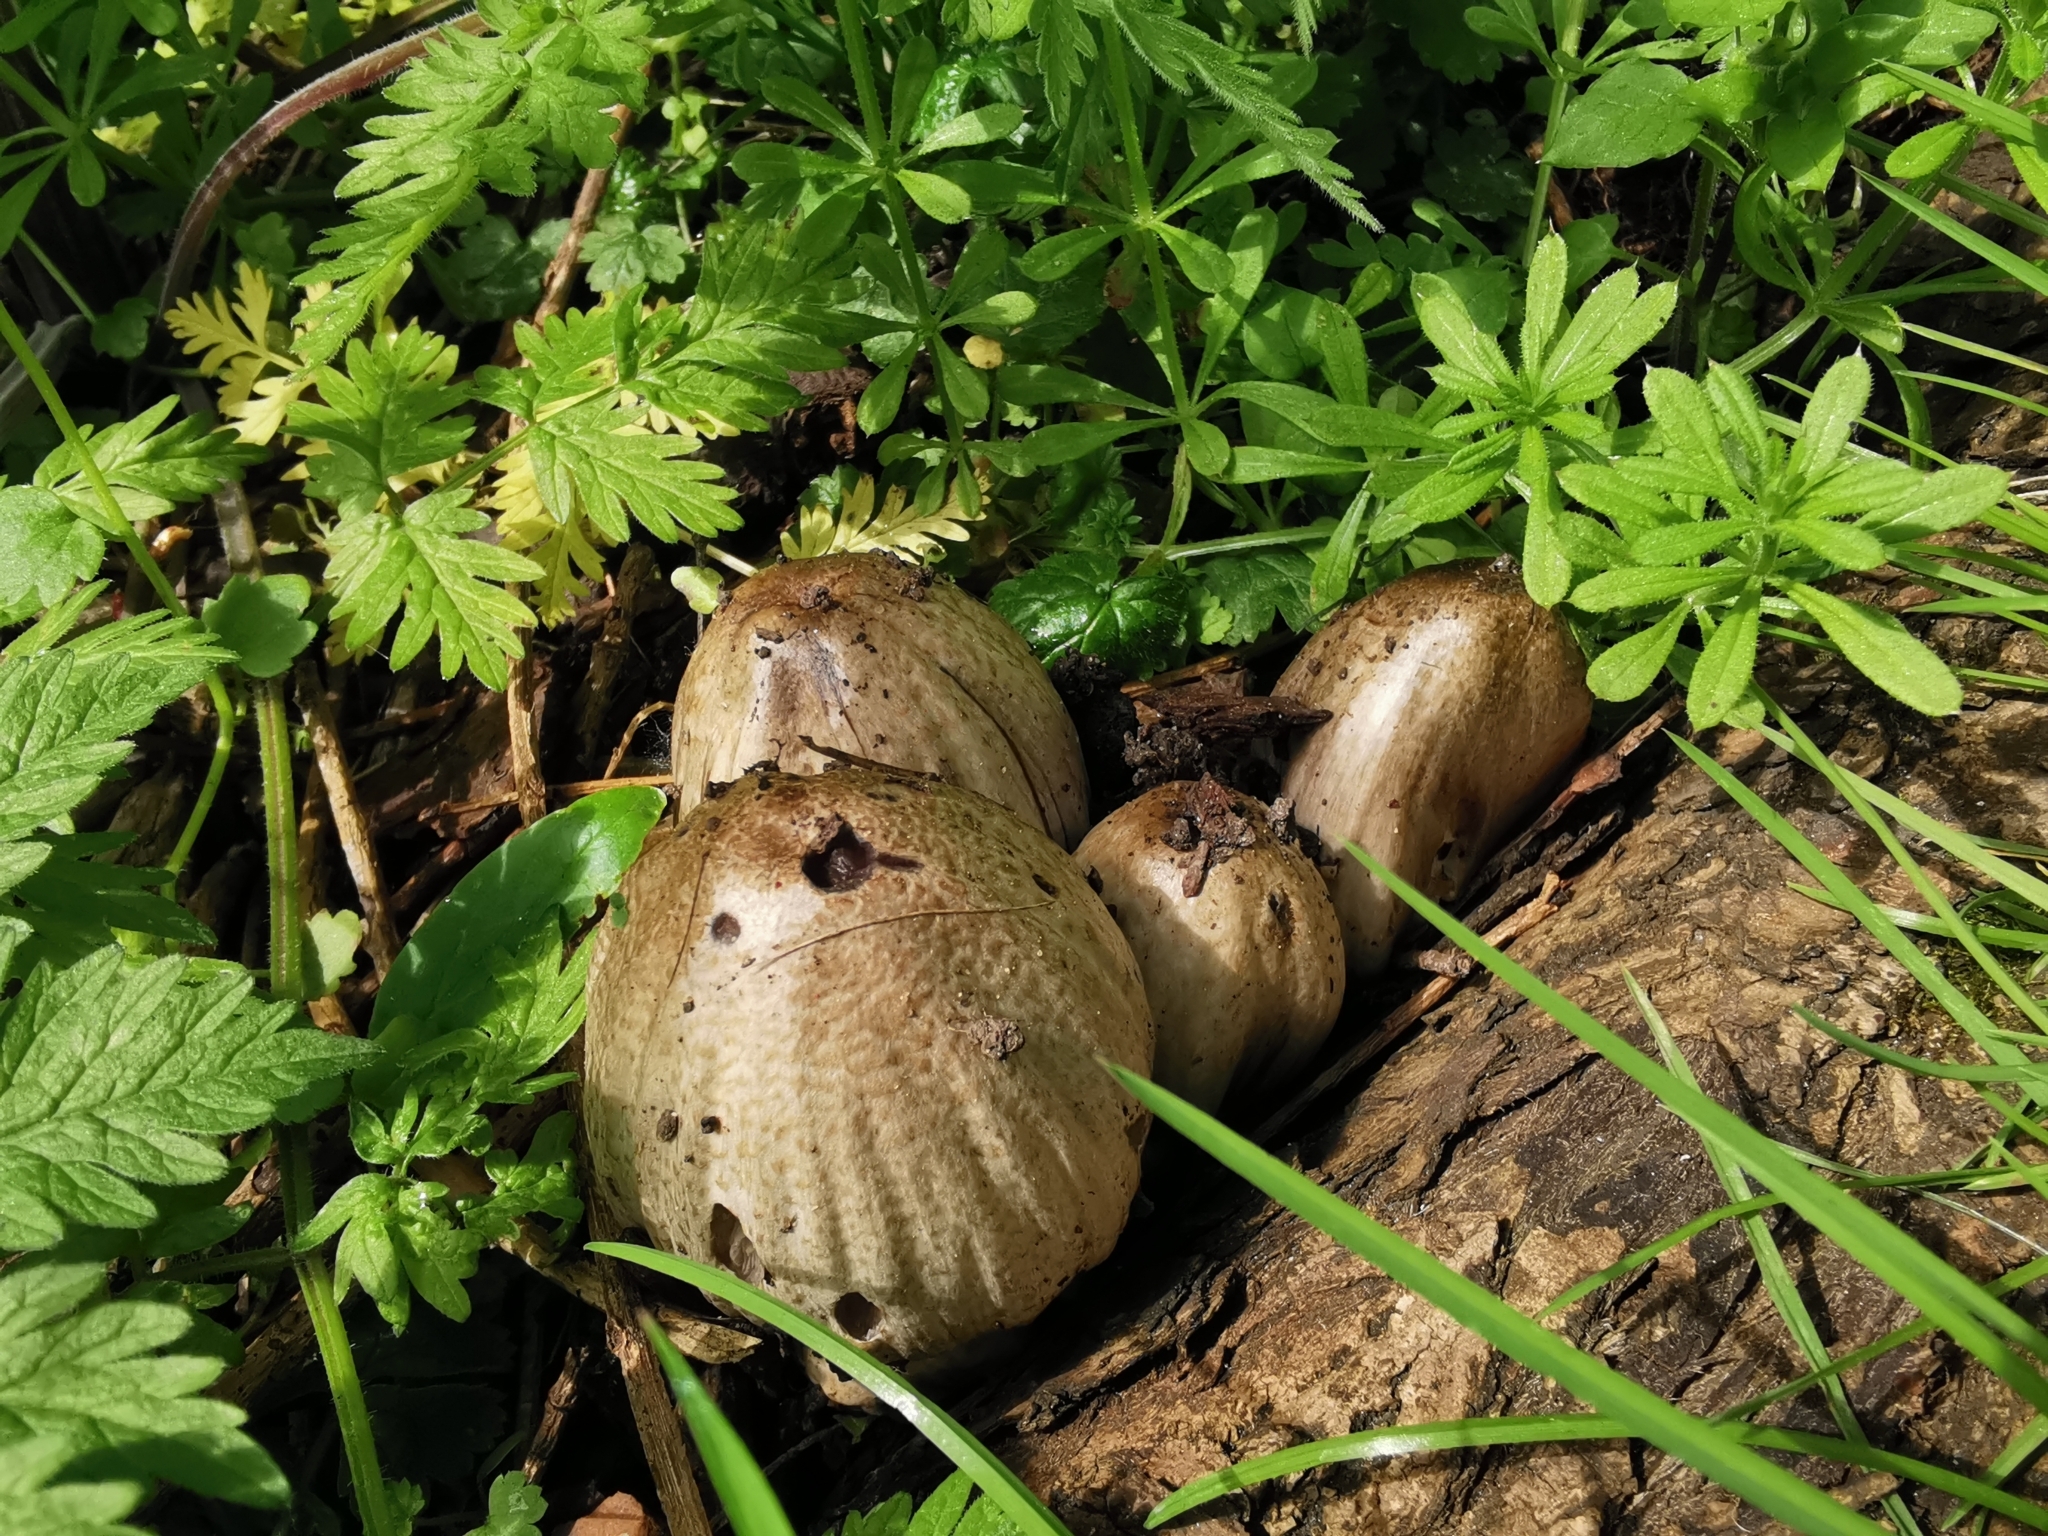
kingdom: Fungi
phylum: Basidiomycota
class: Agaricomycetes
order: Agaricales
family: Psathyrellaceae
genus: Coprinopsis
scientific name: Coprinopsis atramentaria
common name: Common ink-cap
